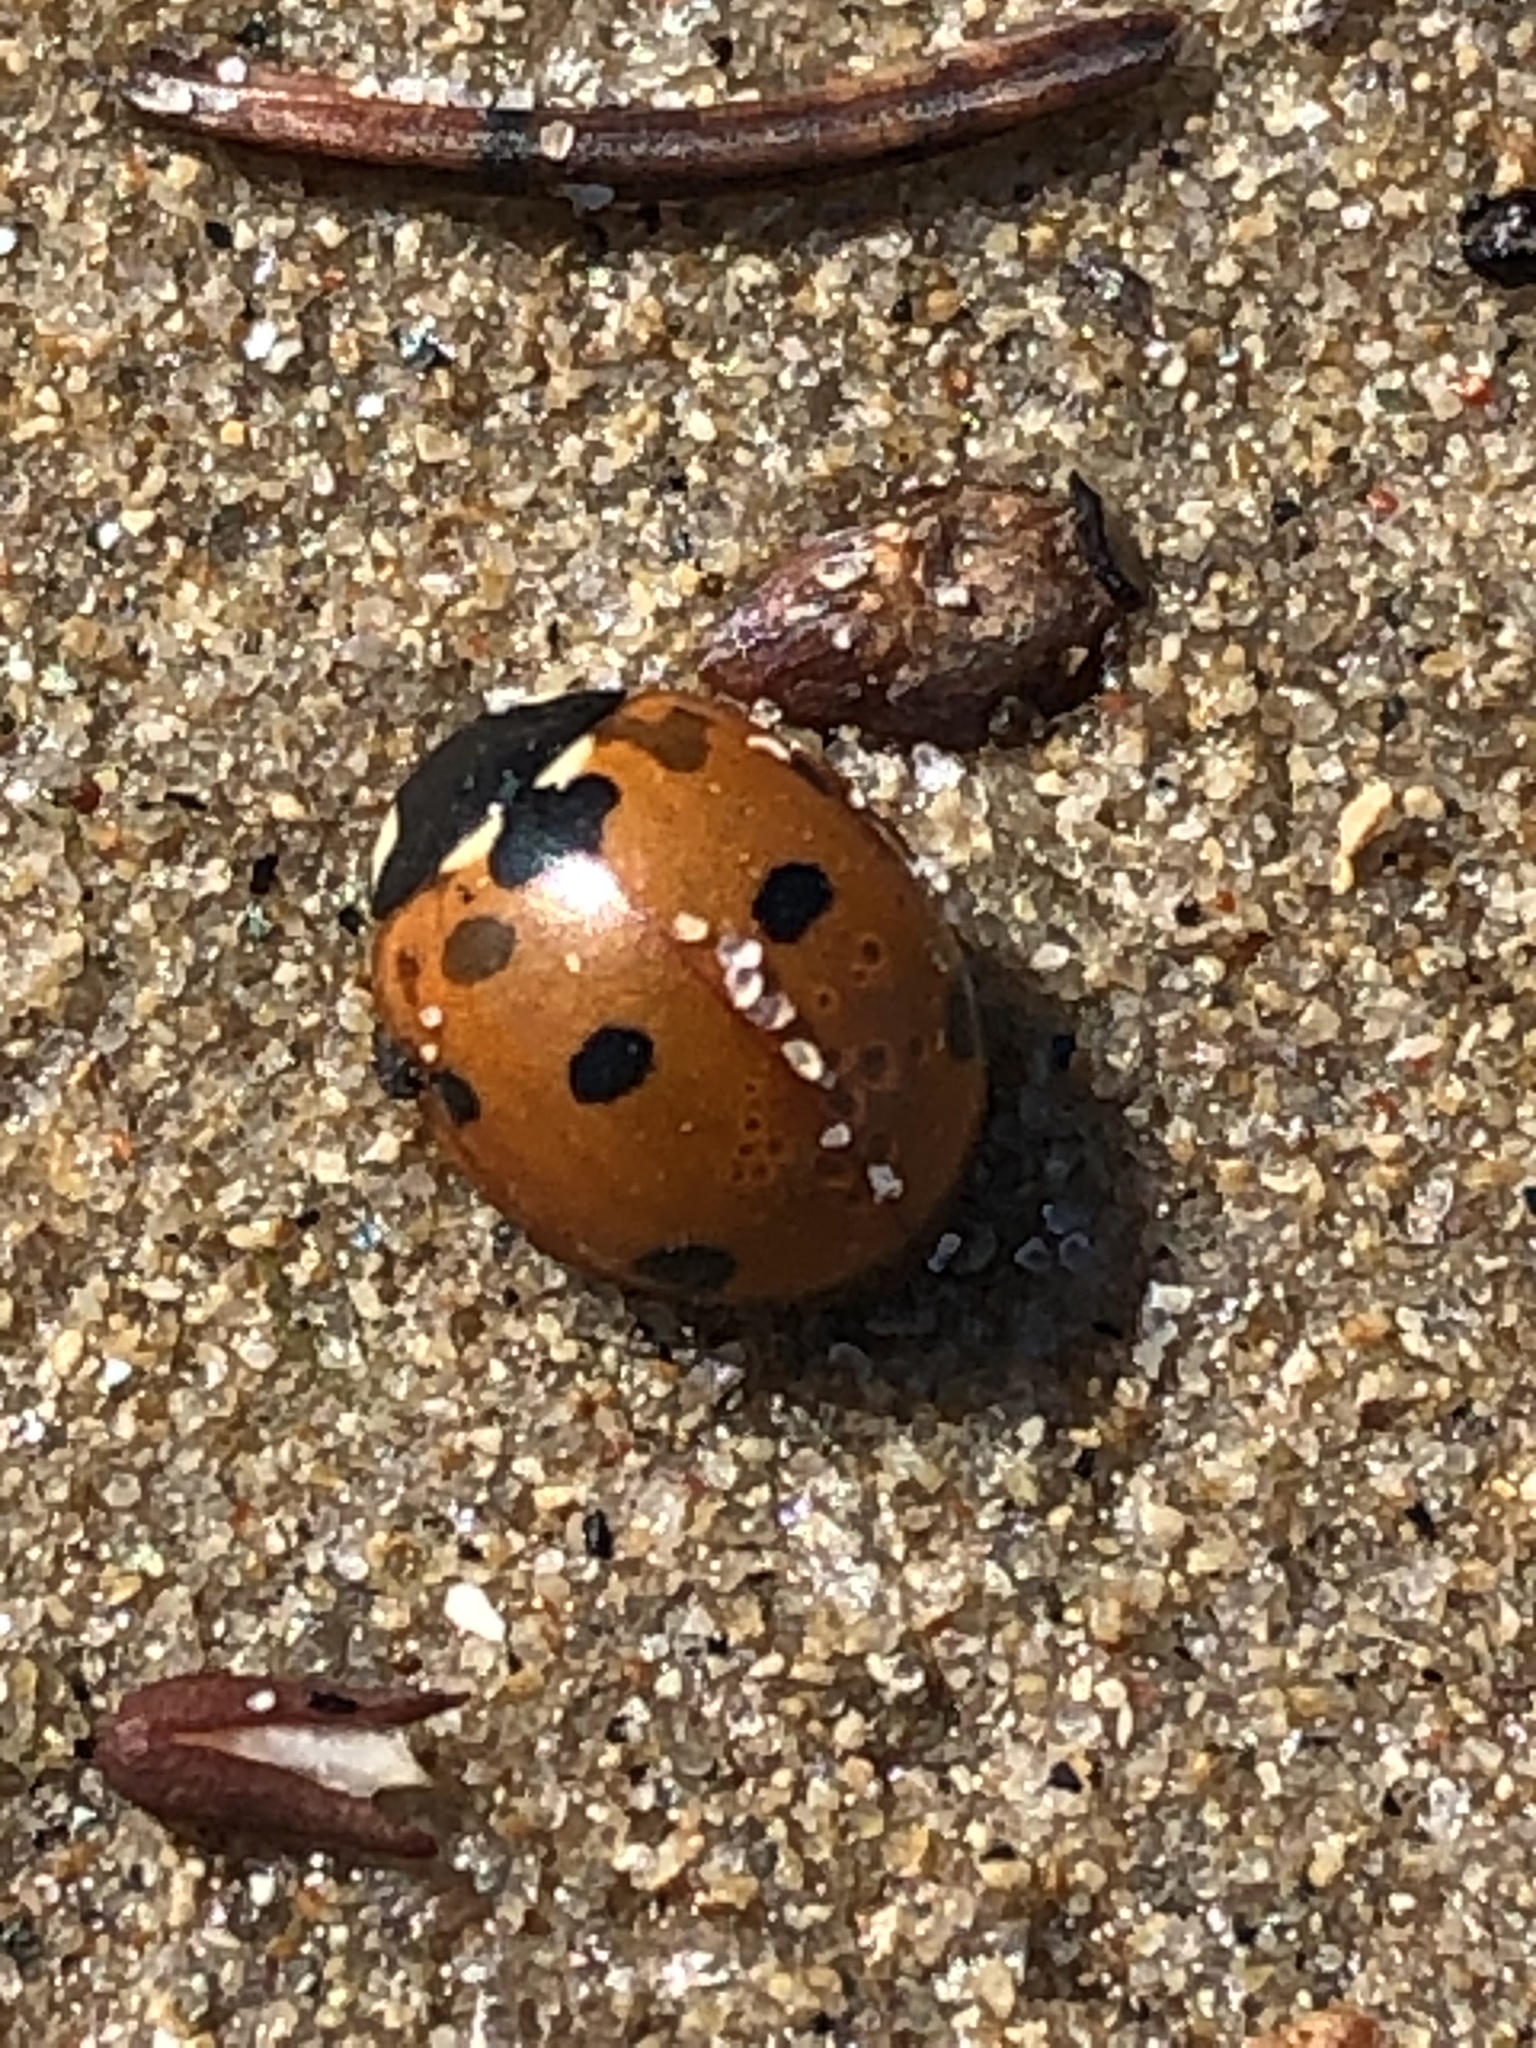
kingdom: Animalia
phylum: Arthropoda
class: Insecta
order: Coleoptera
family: Coccinellidae
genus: Coccinella
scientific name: Coccinella septempunctata
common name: Sevenspotted lady beetle
